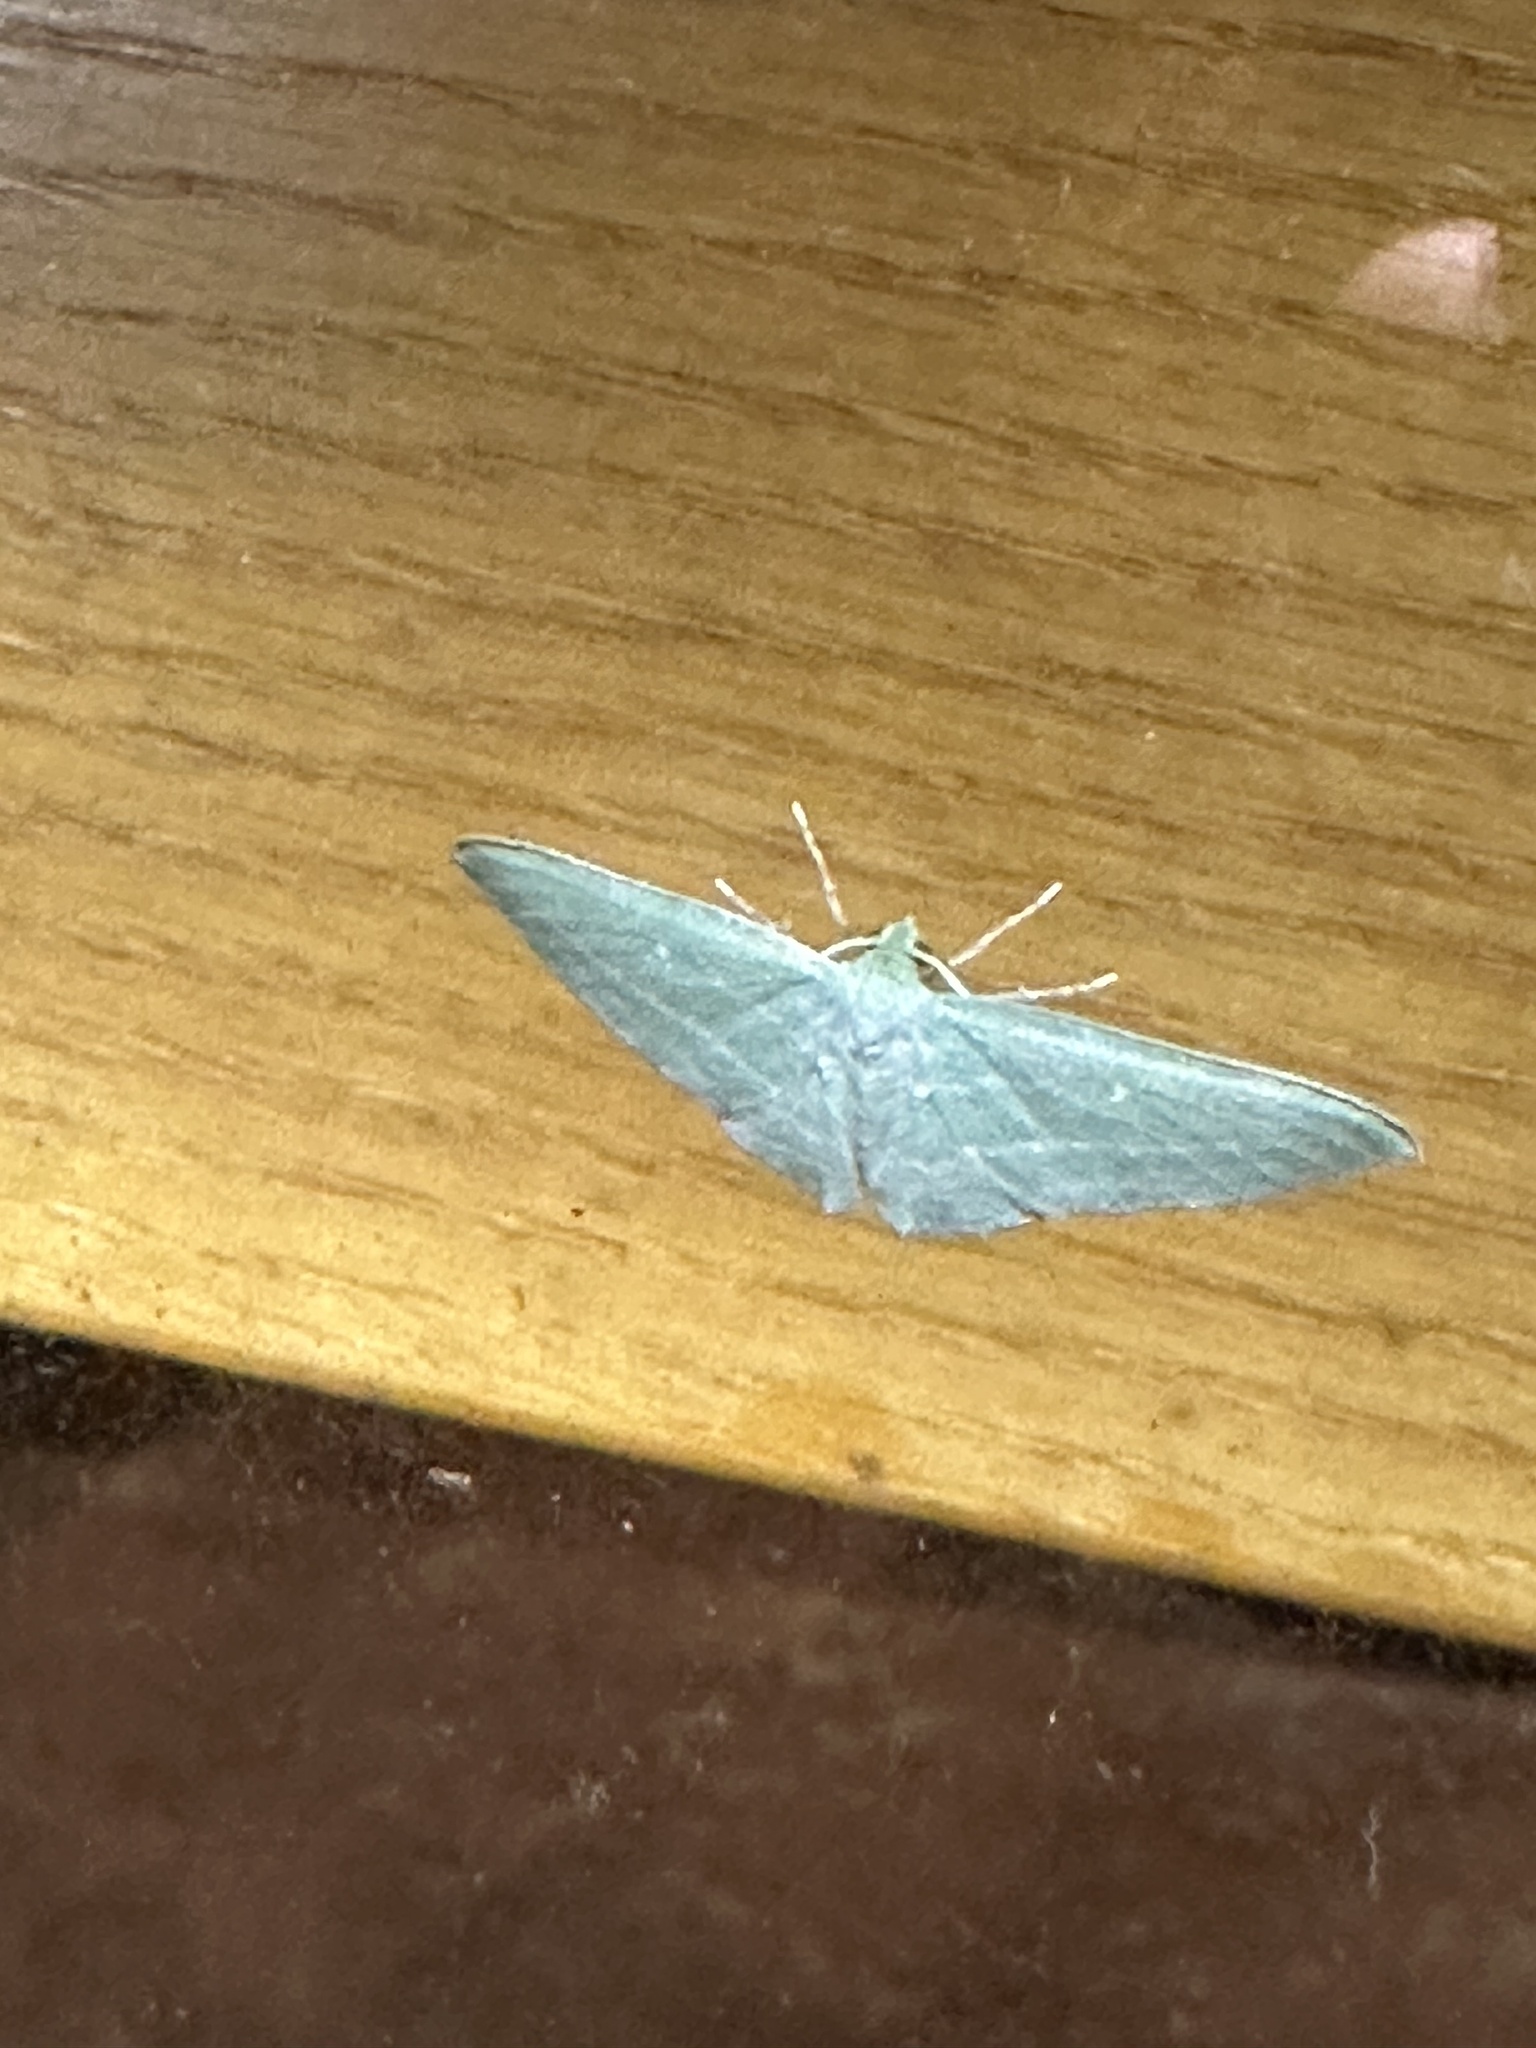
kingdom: Animalia
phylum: Arthropoda
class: Insecta
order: Lepidoptera
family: Geometridae
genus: Dyspteris
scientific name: Dyspteris abortivaria
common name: Bad-wing
